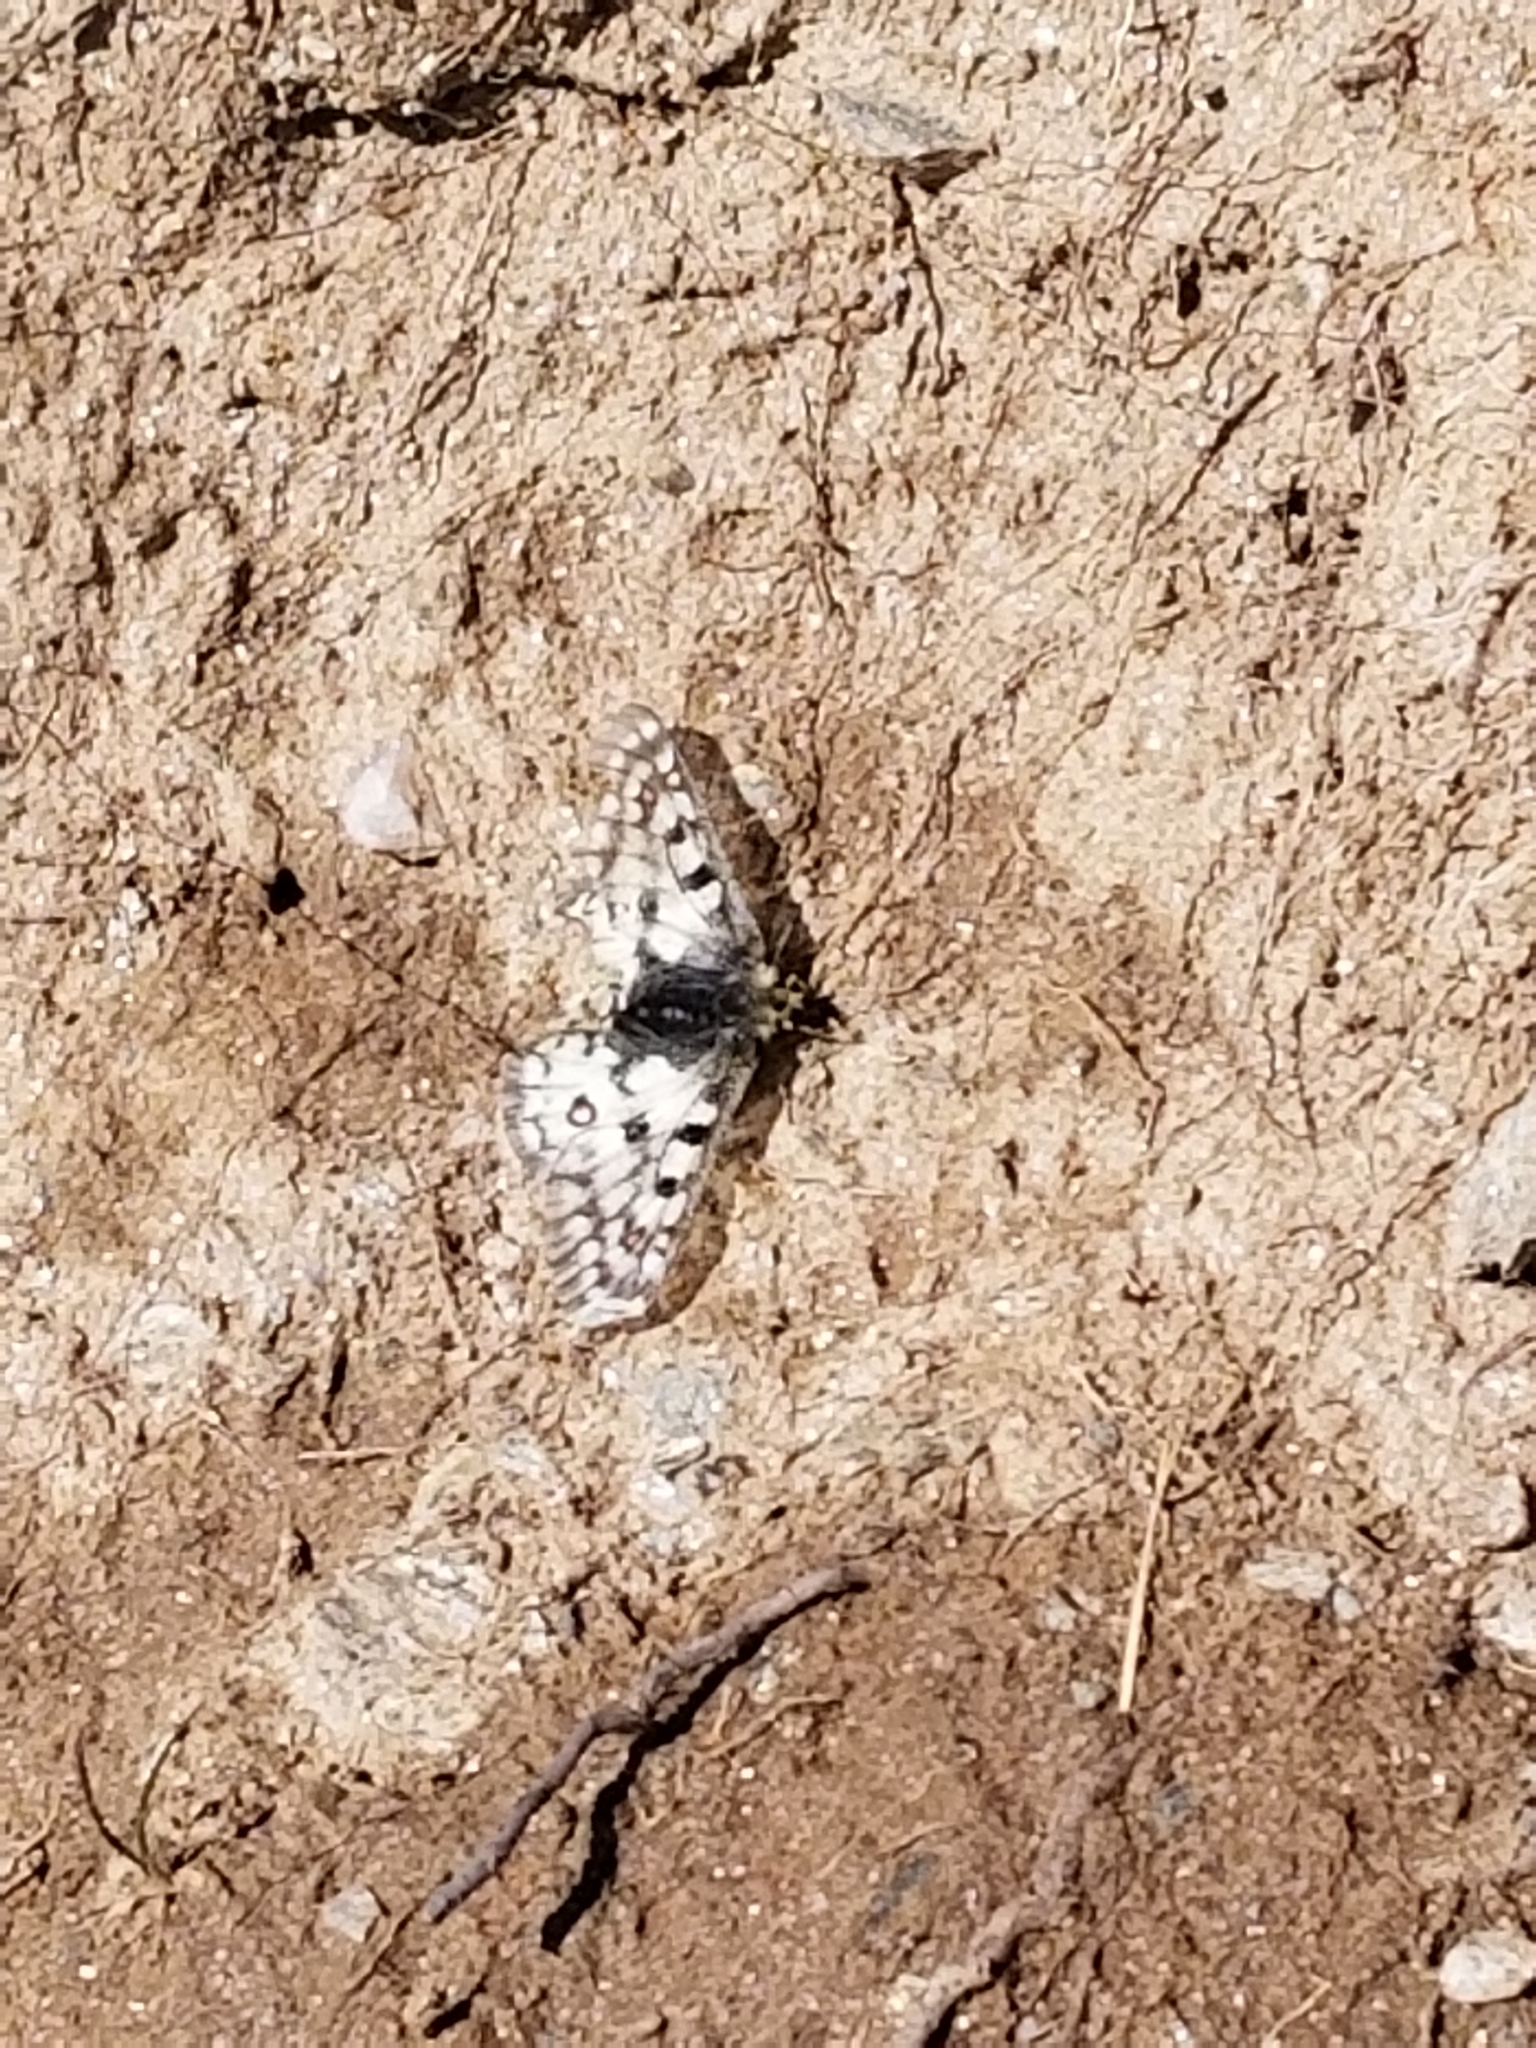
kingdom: Animalia
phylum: Arthropoda
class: Insecta
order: Lepidoptera
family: Papilionidae
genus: Parnassius
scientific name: Parnassius smintheus
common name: Mountain parnassian
